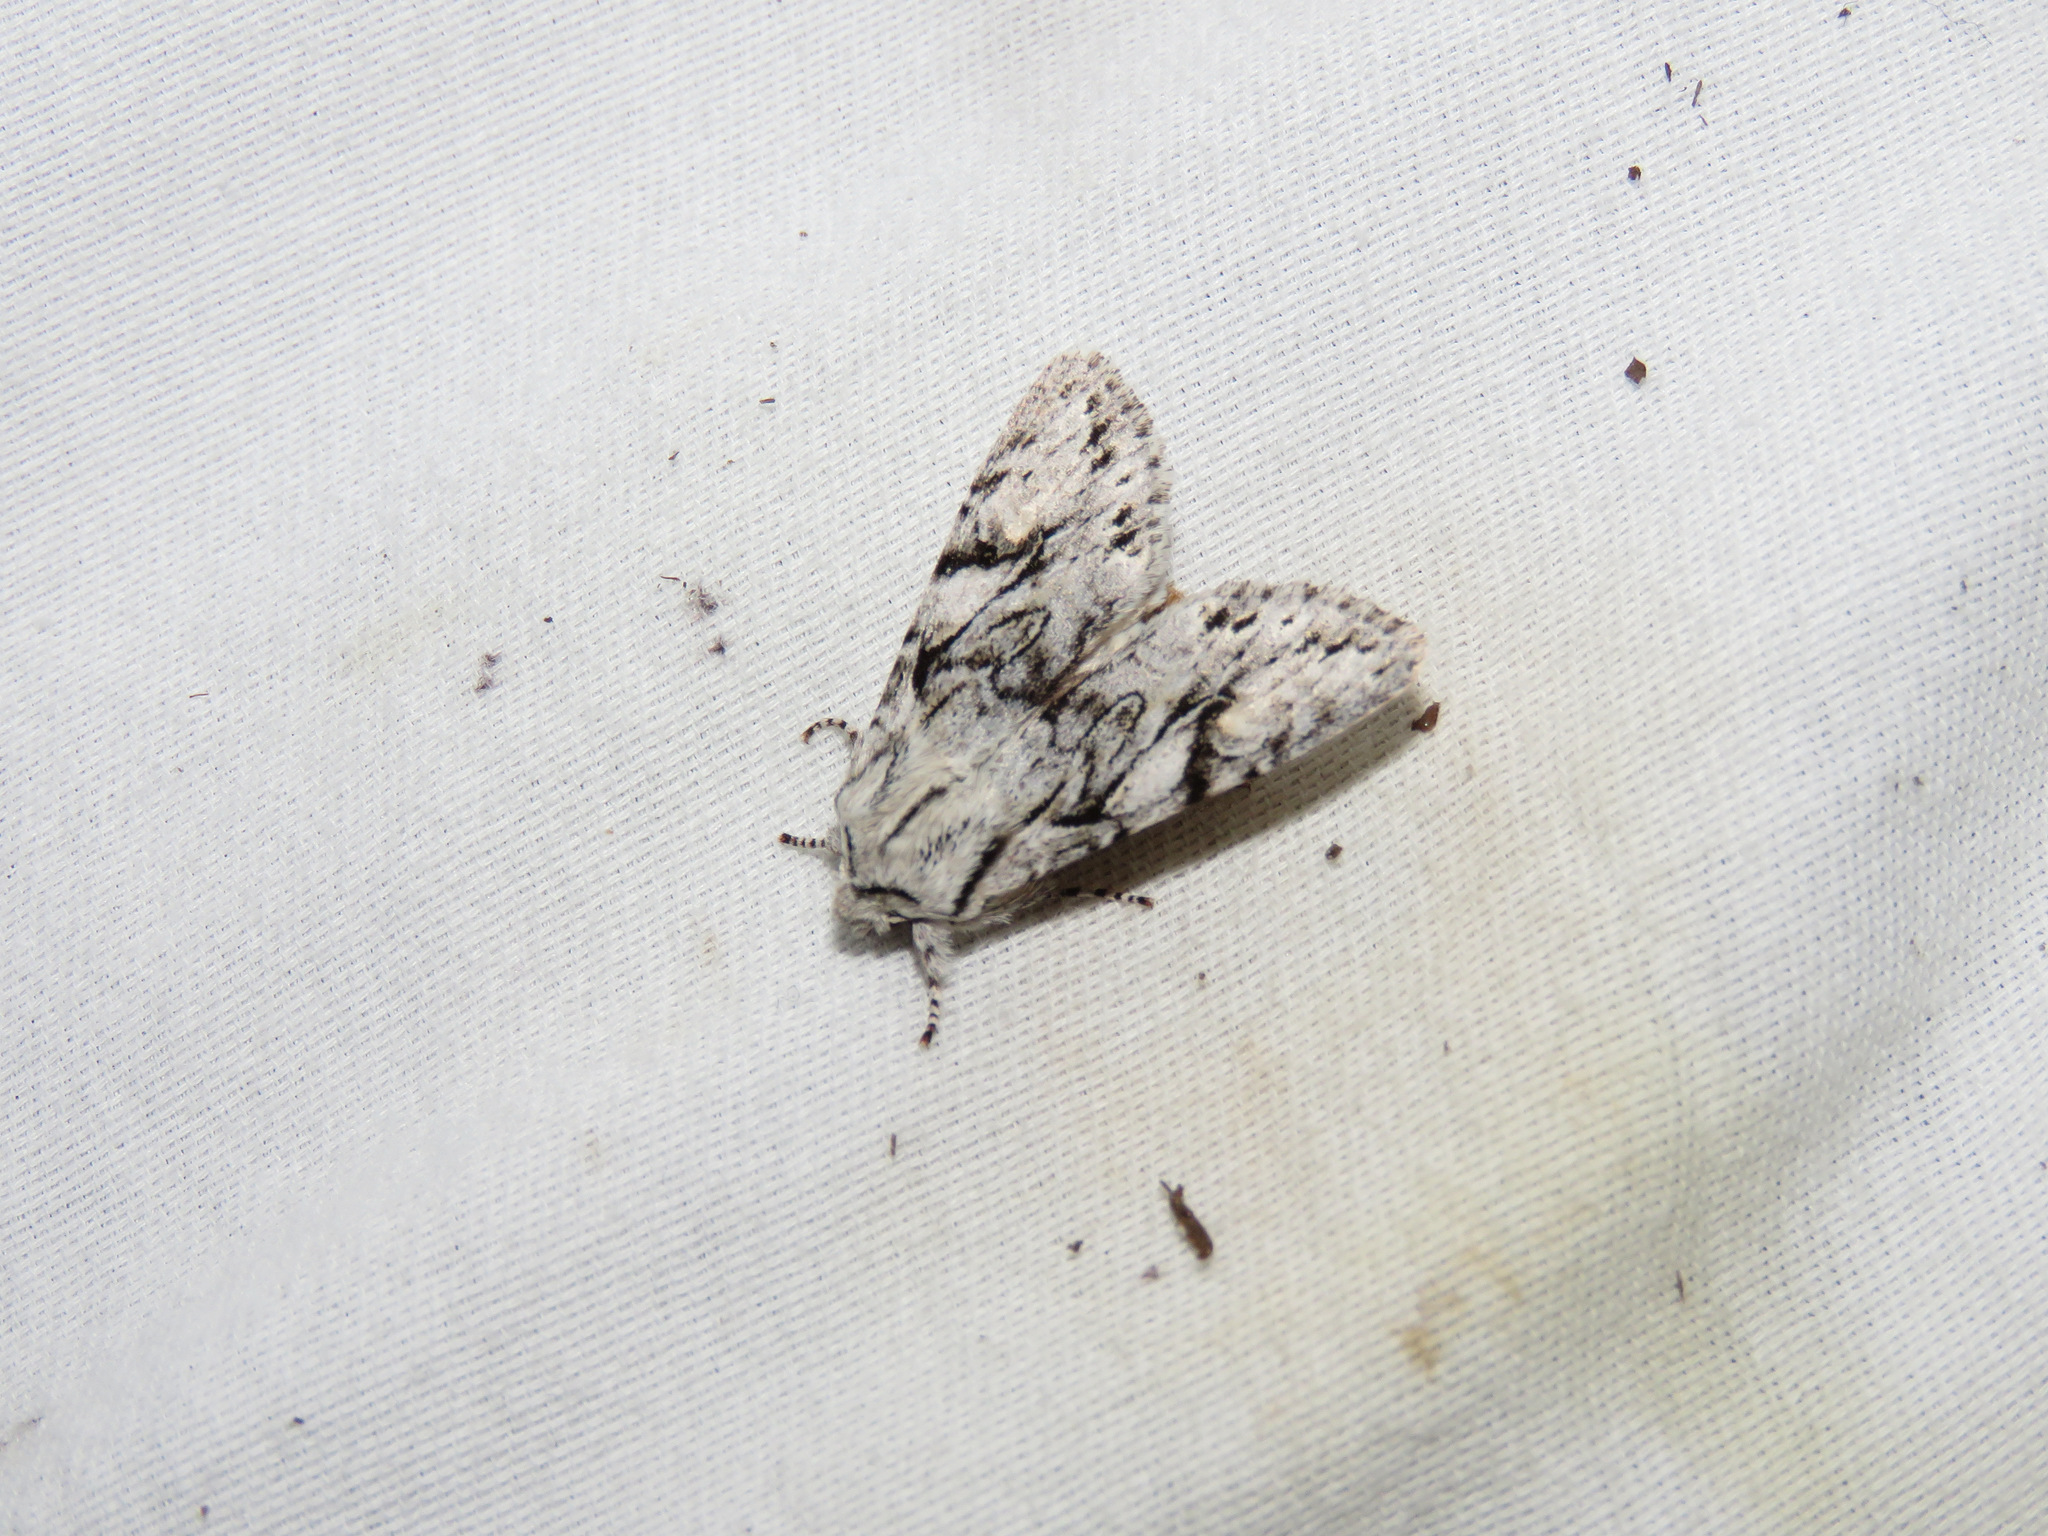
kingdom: Animalia
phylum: Arthropoda
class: Insecta
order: Lepidoptera
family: Noctuidae
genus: Egira
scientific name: Egira simplex
